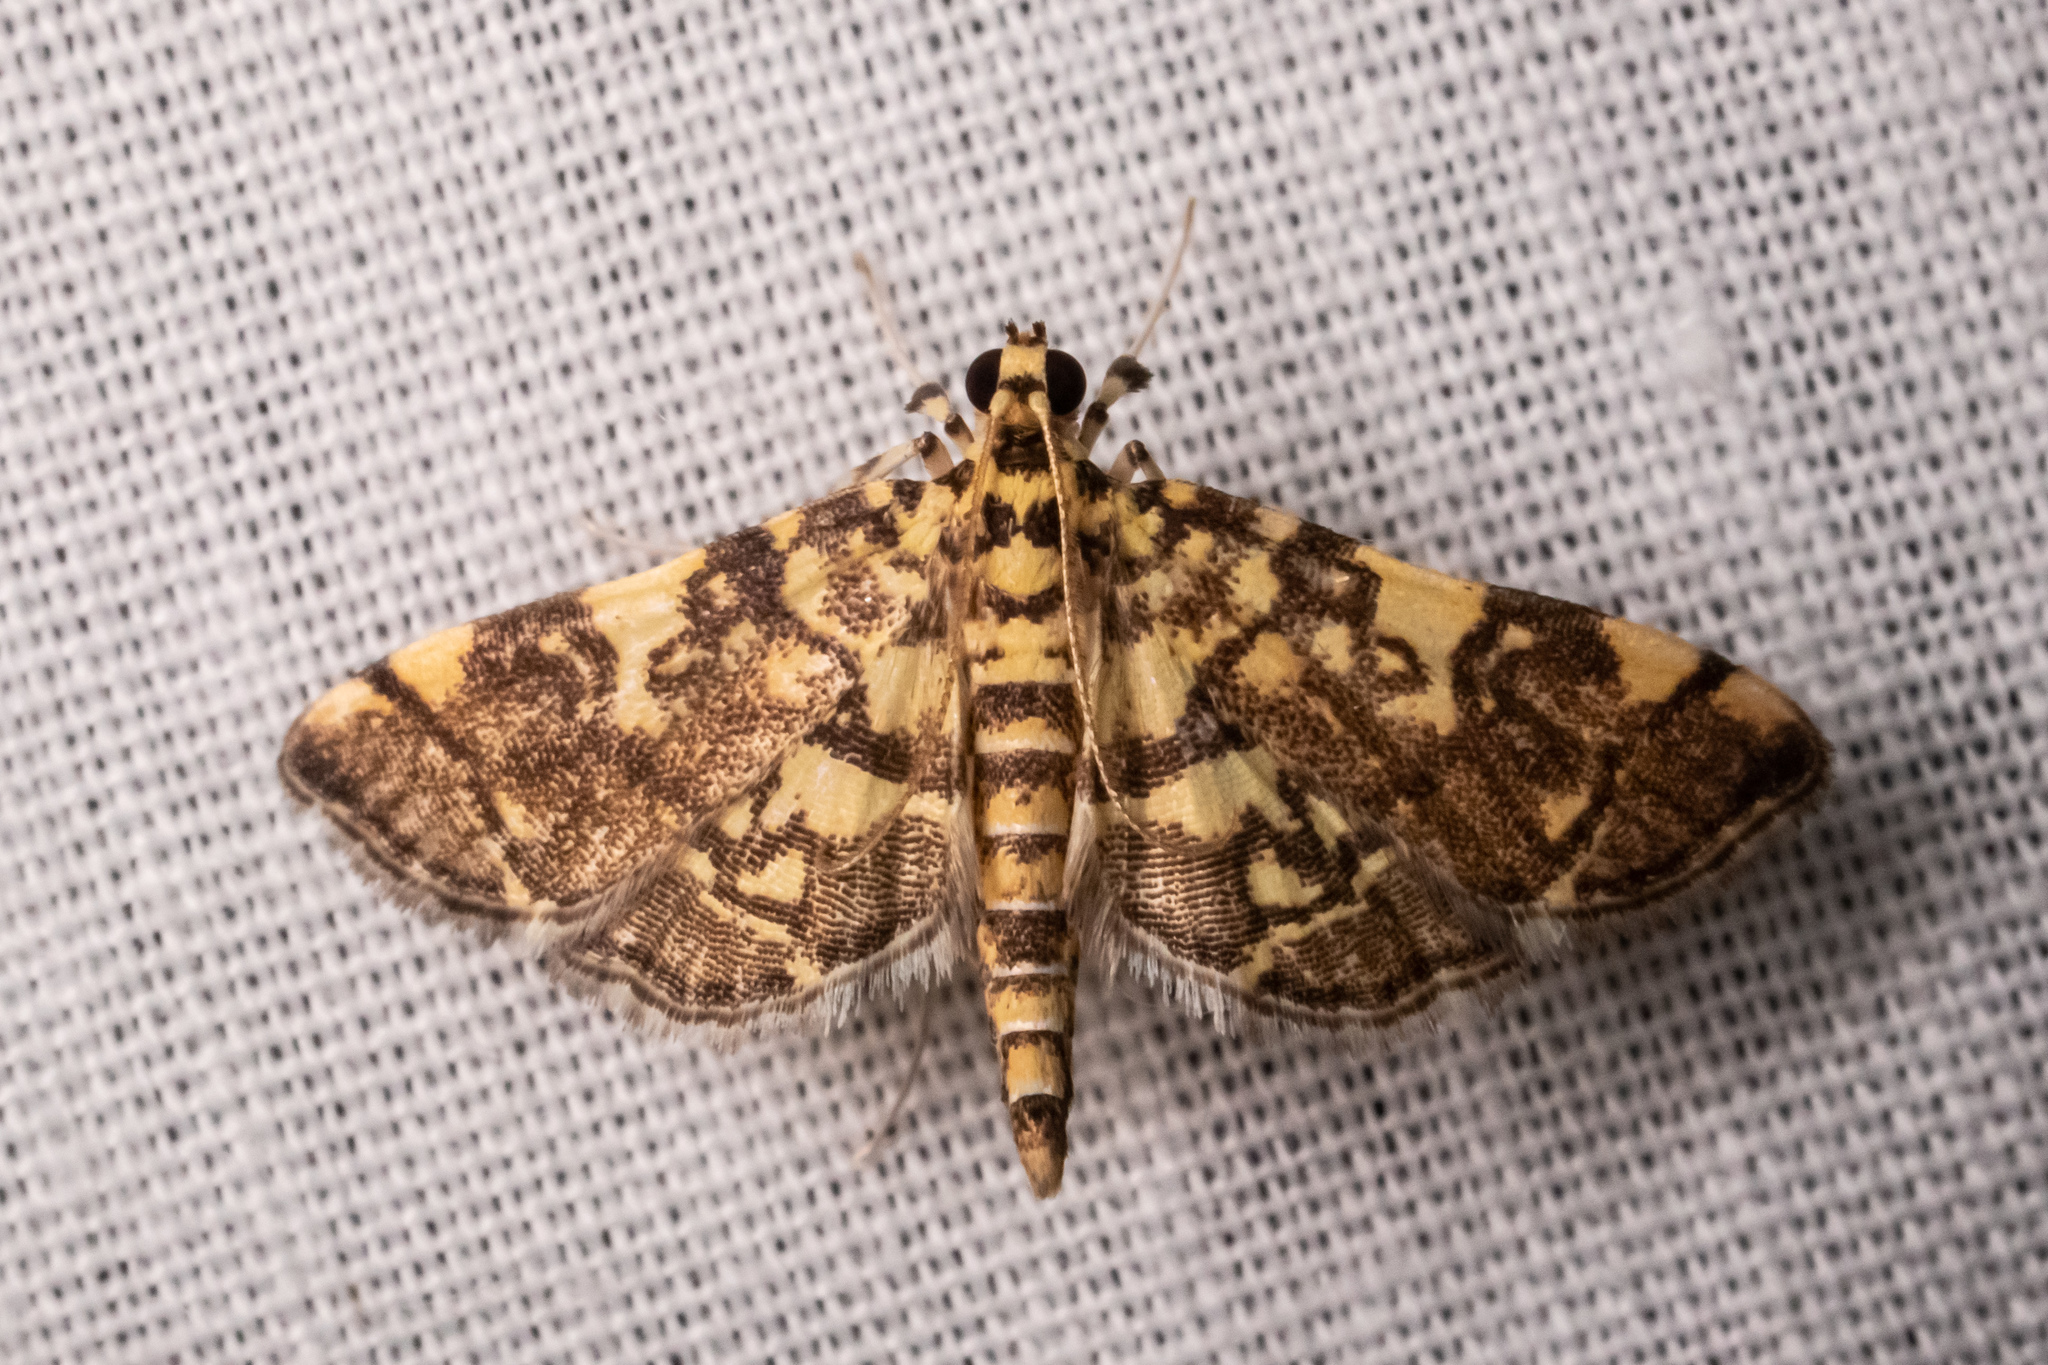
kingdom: Animalia
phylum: Arthropoda
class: Insecta
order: Lepidoptera
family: Crambidae
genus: Apogeshna
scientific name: Apogeshna stenialis
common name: Checkered apogeshna moth
